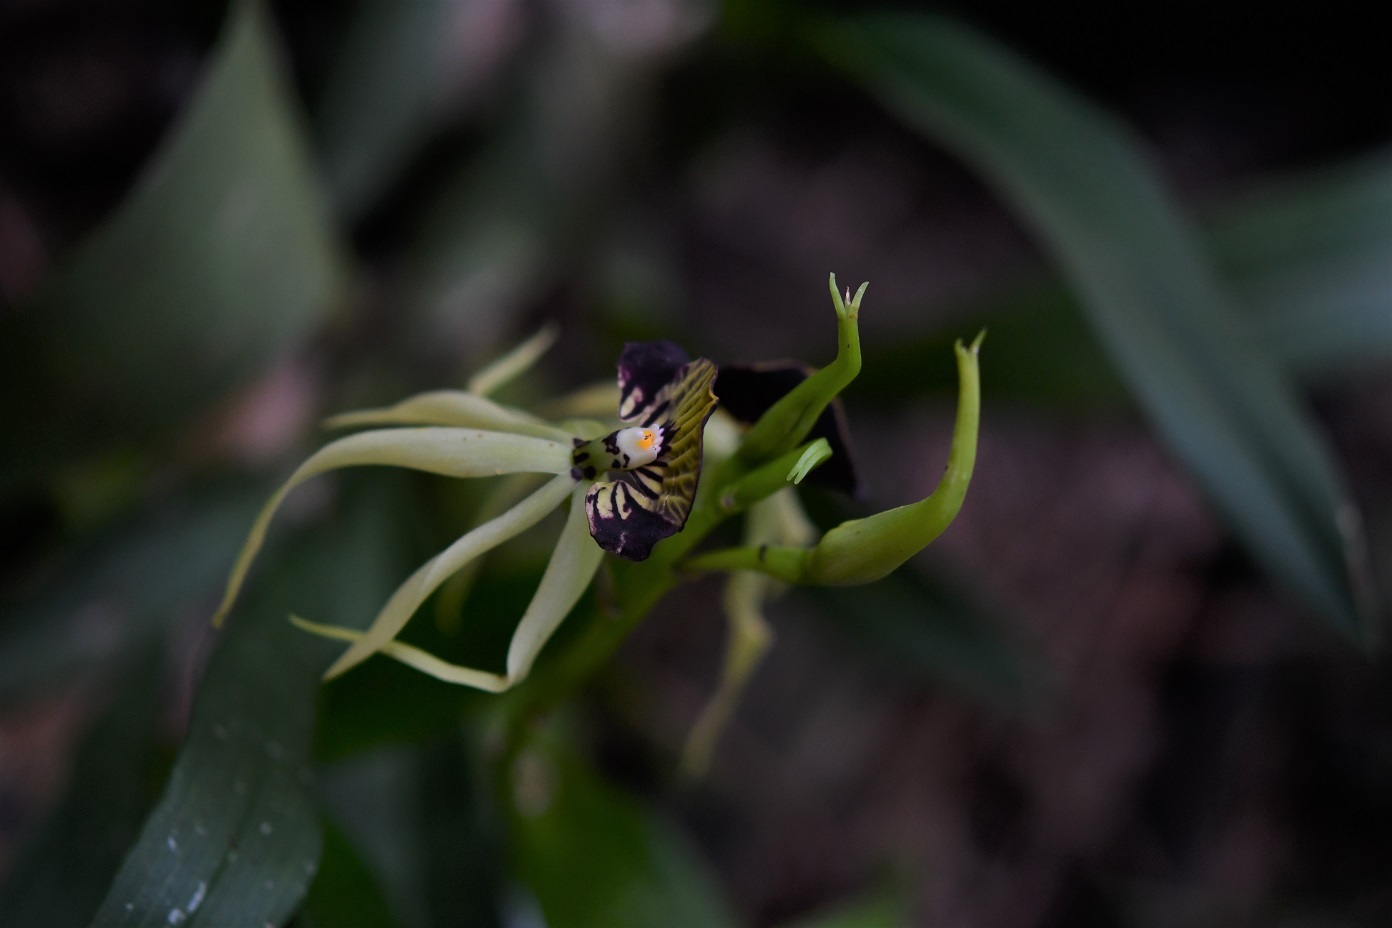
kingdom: Plantae
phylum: Tracheophyta
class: Liliopsida
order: Asparagales
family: Orchidaceae
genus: Prosthechea
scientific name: Prosthechea cochleata
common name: Clamshell orchid
